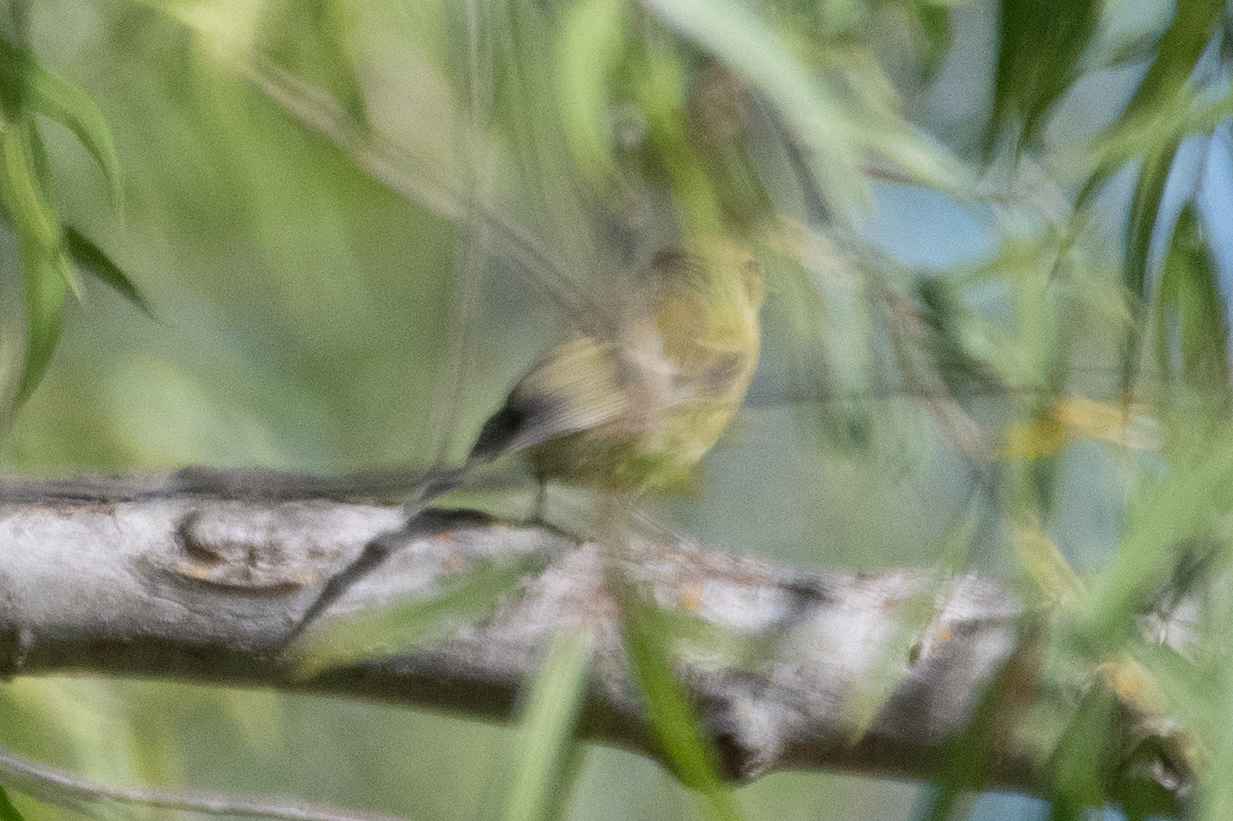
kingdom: Animalia
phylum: Chordata
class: Aves
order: Passeriformes
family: Parulidae
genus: Leiothlypis
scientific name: Leiothlypis celata
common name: Orange-crowned warbler
